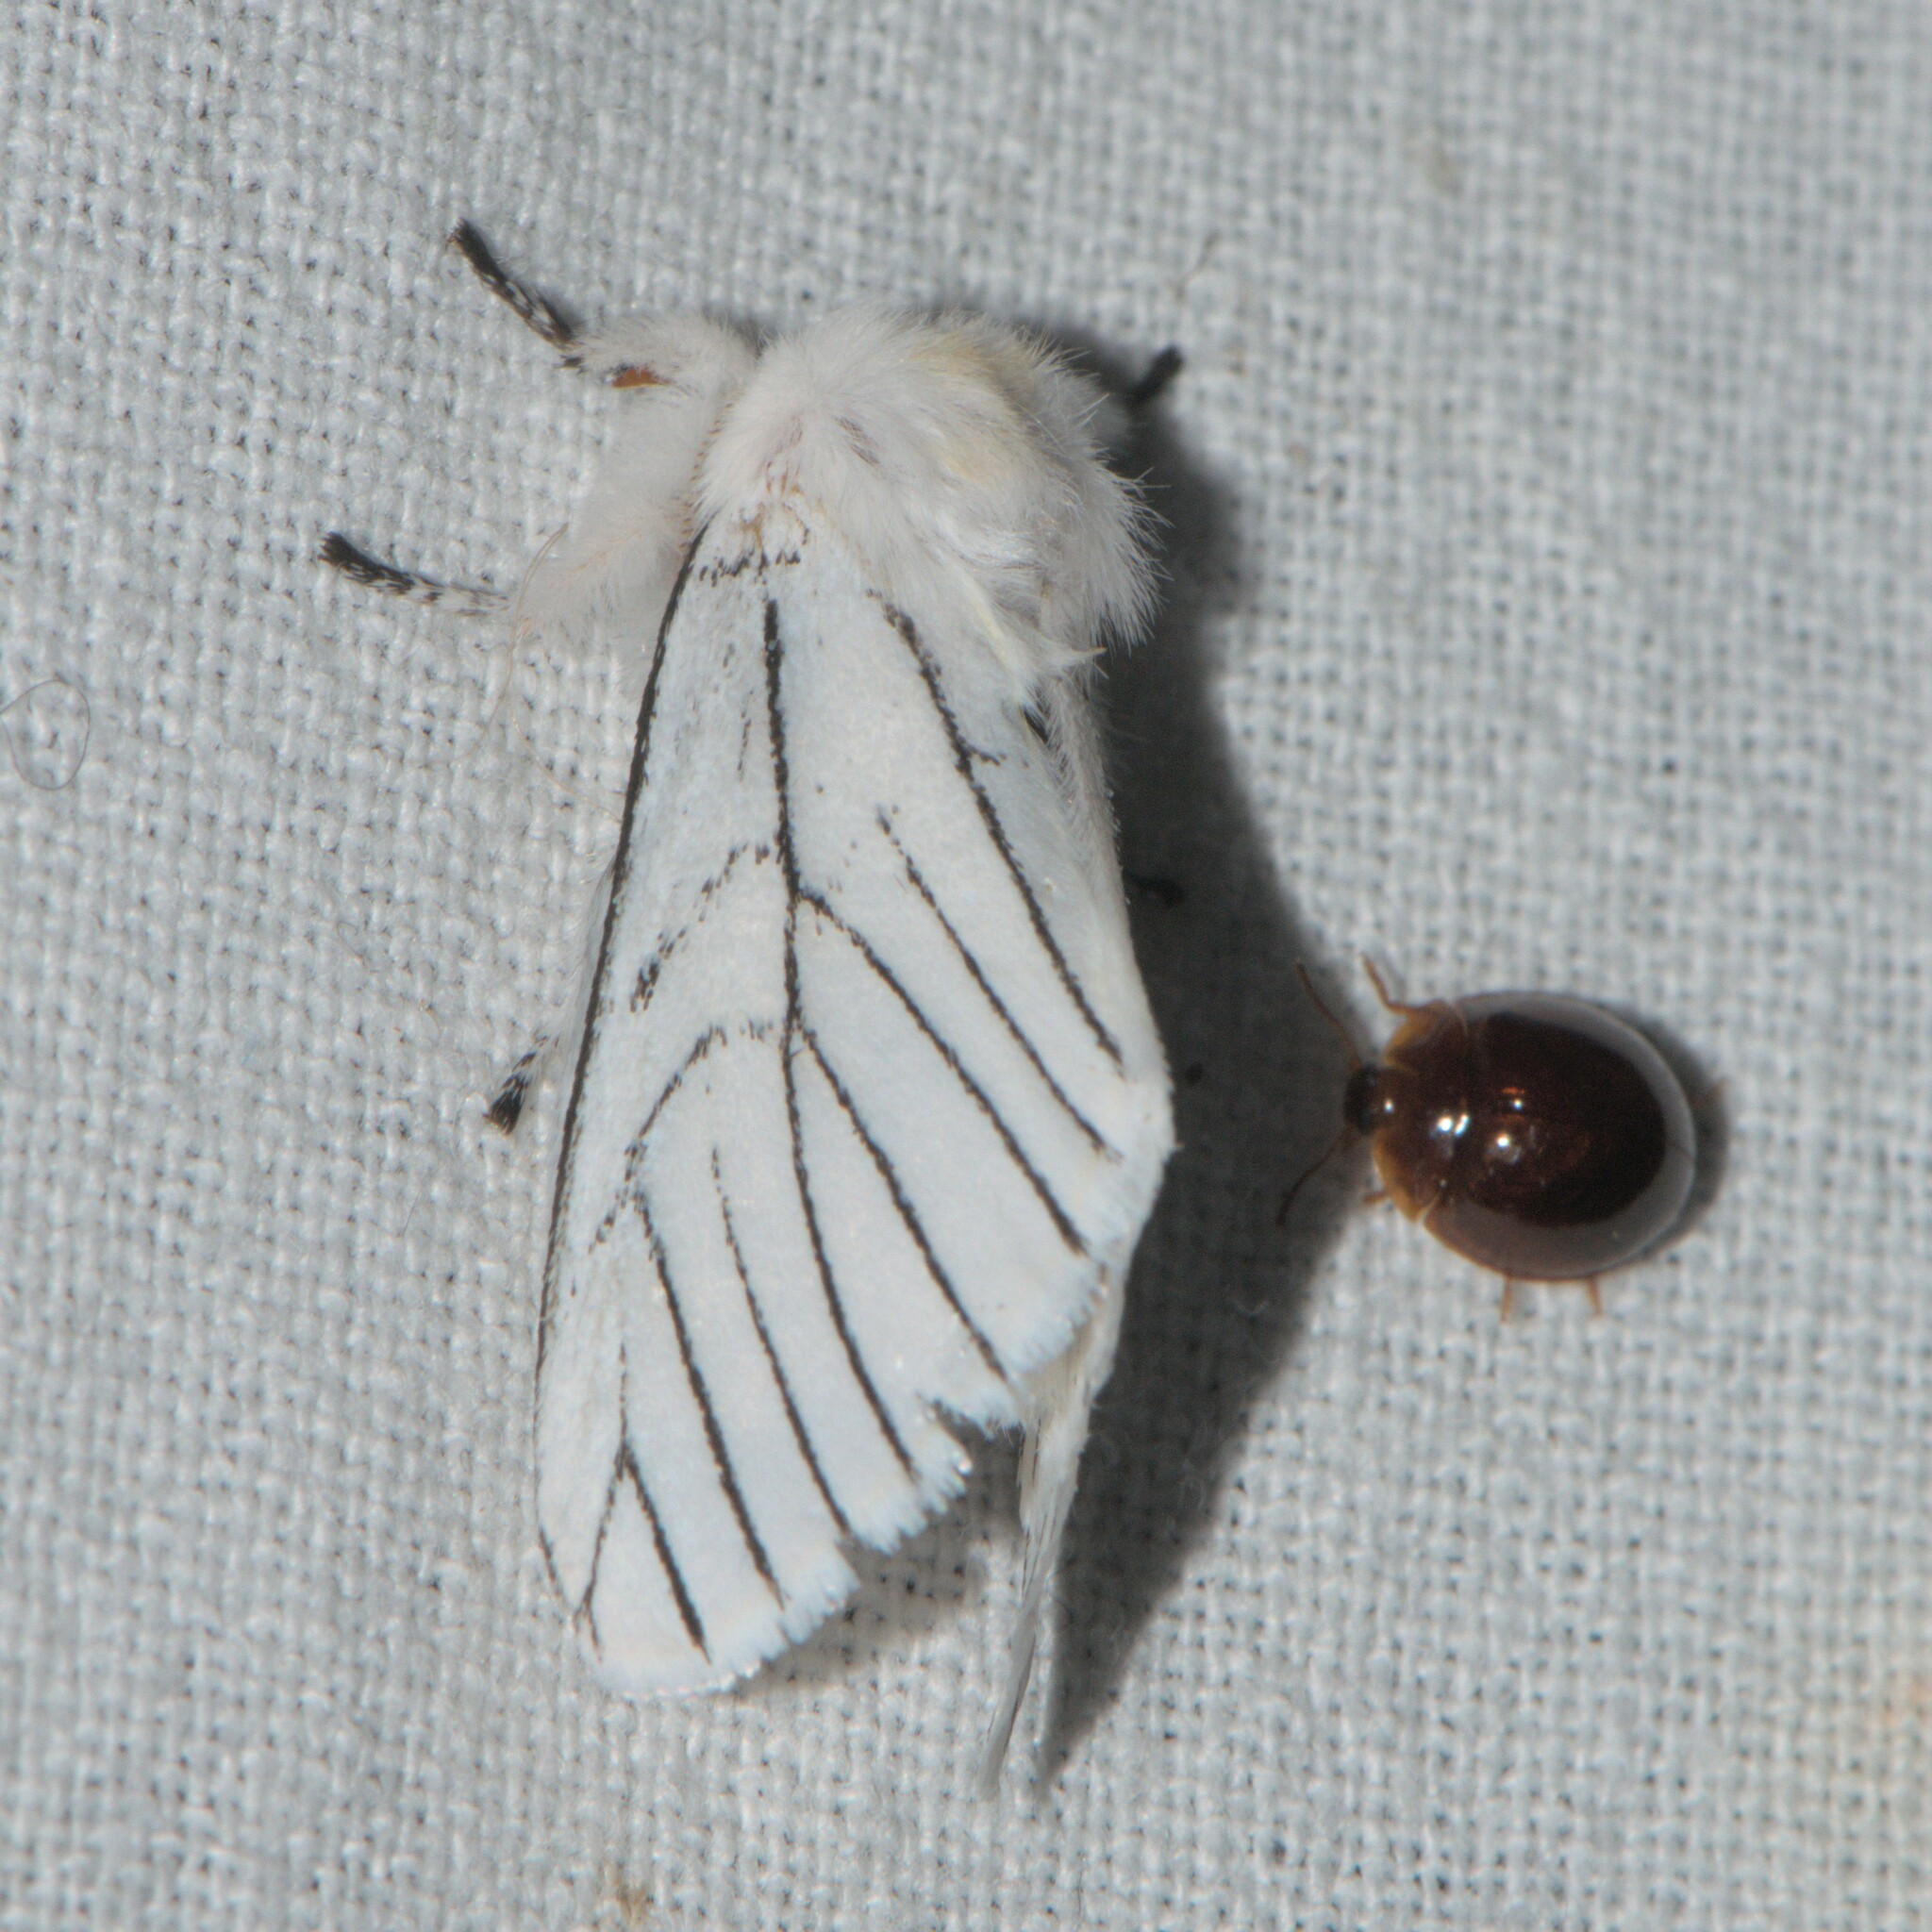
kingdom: Animalia
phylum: Arthropoda
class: Insecta
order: Lepidoptera
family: Notodontidae
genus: Gazalina
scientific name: Gazalina apsara
